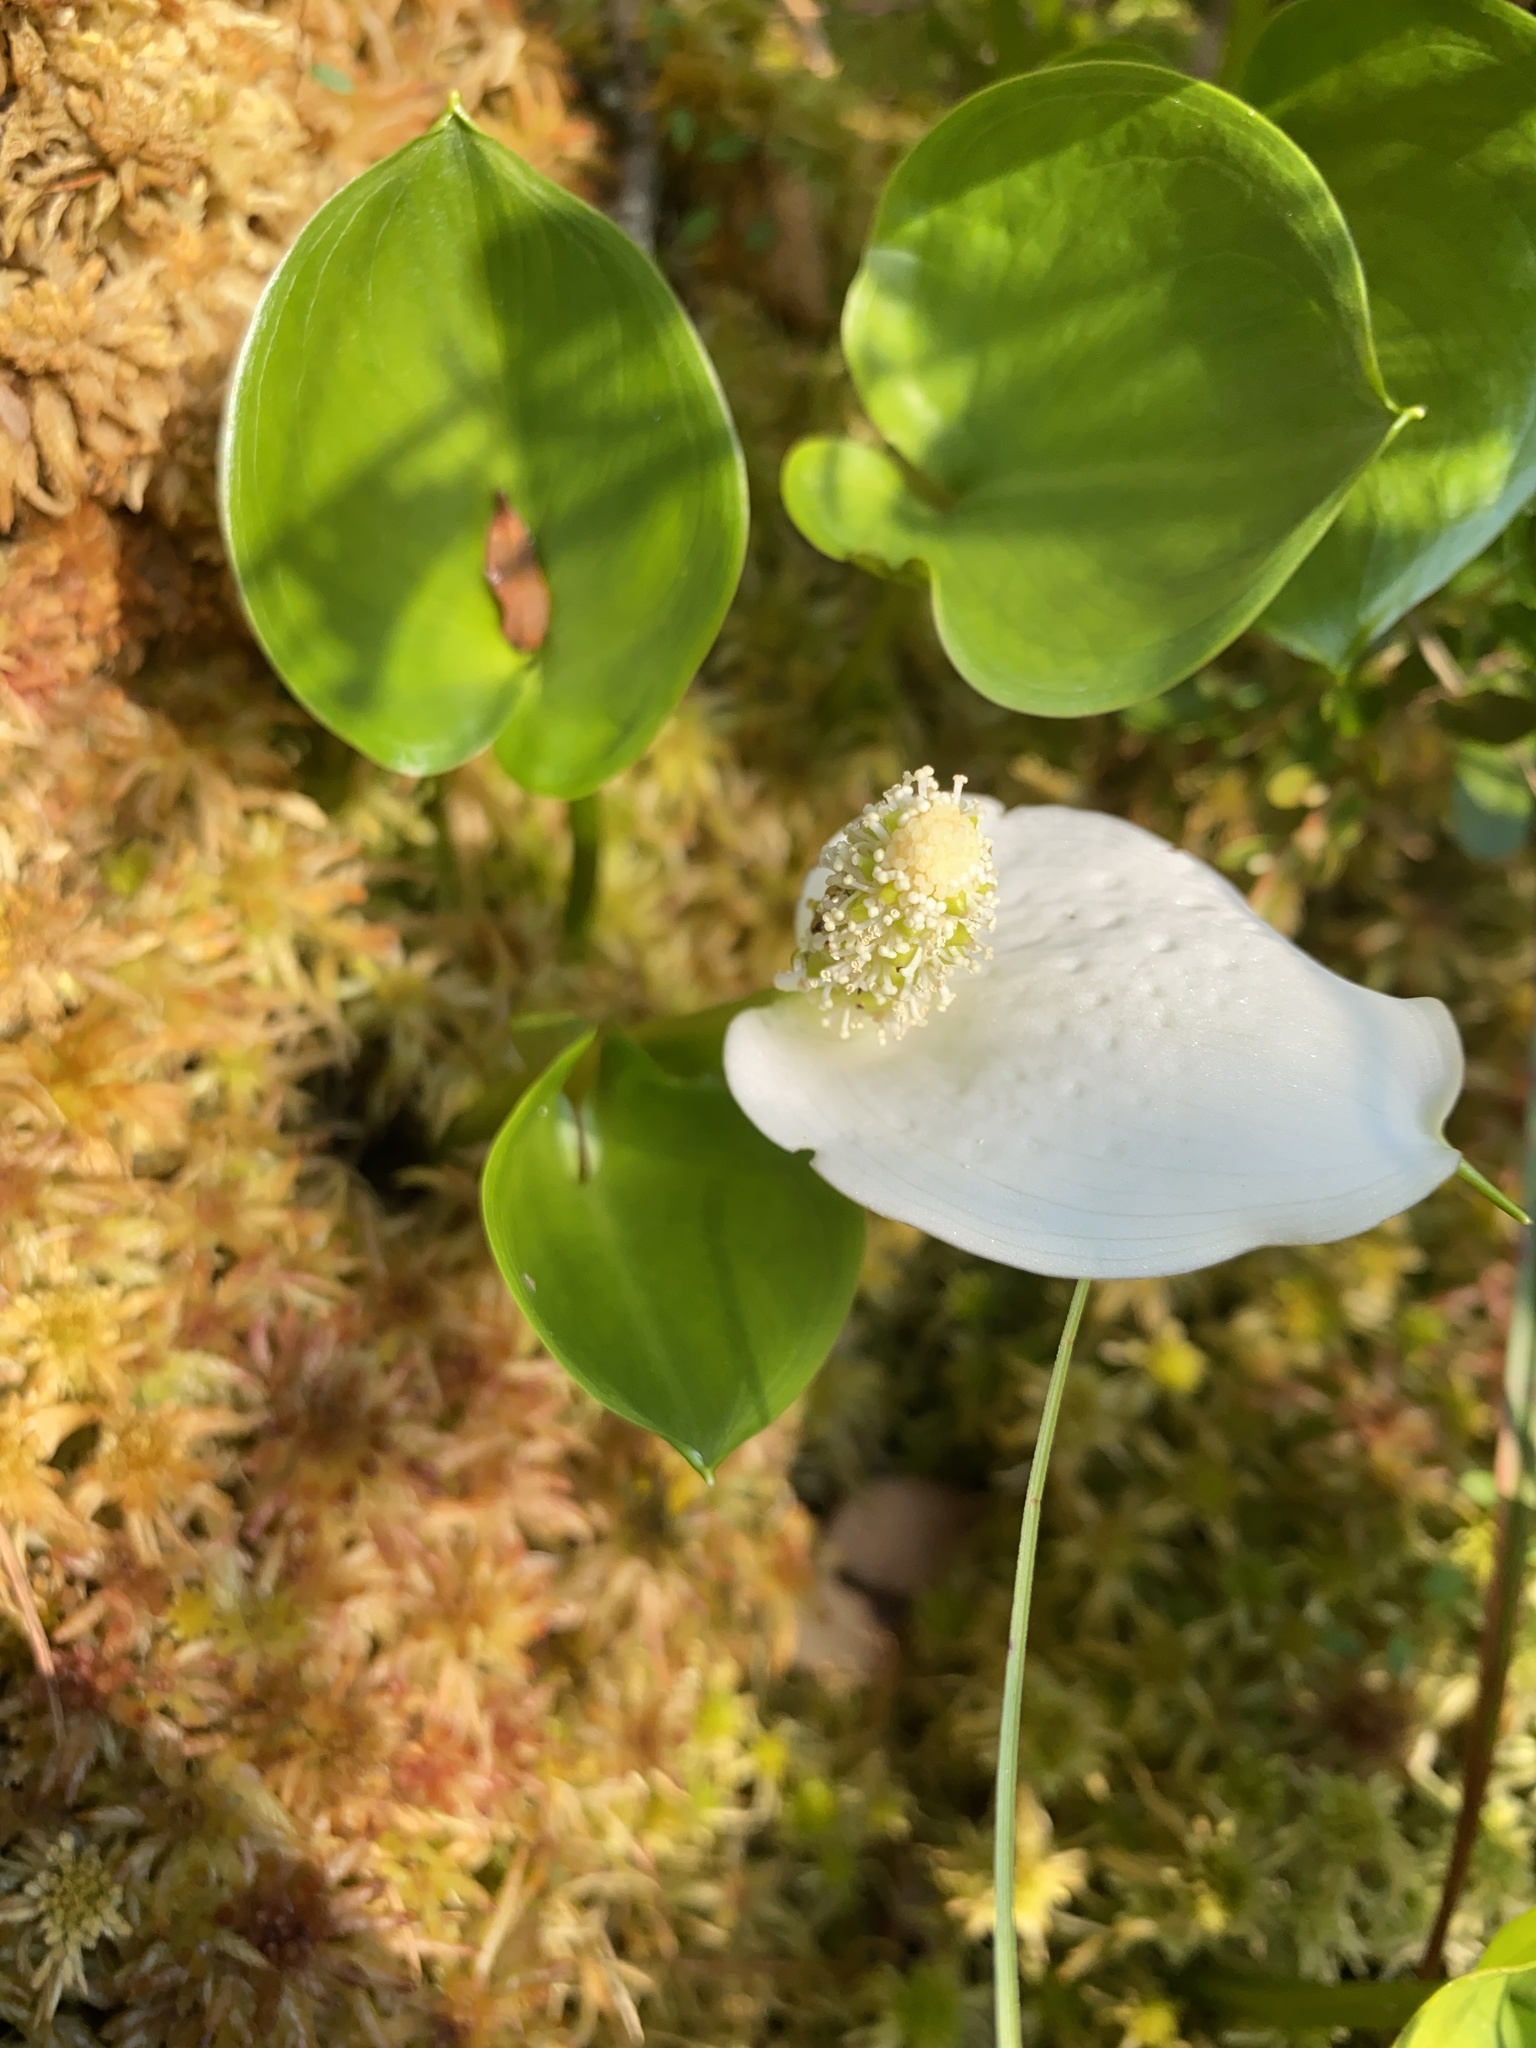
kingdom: Plantae
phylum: Tracheophyta
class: Liliopsida
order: Alismatales
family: Araceae
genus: Calla
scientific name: Calla palustris
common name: Bog arum
